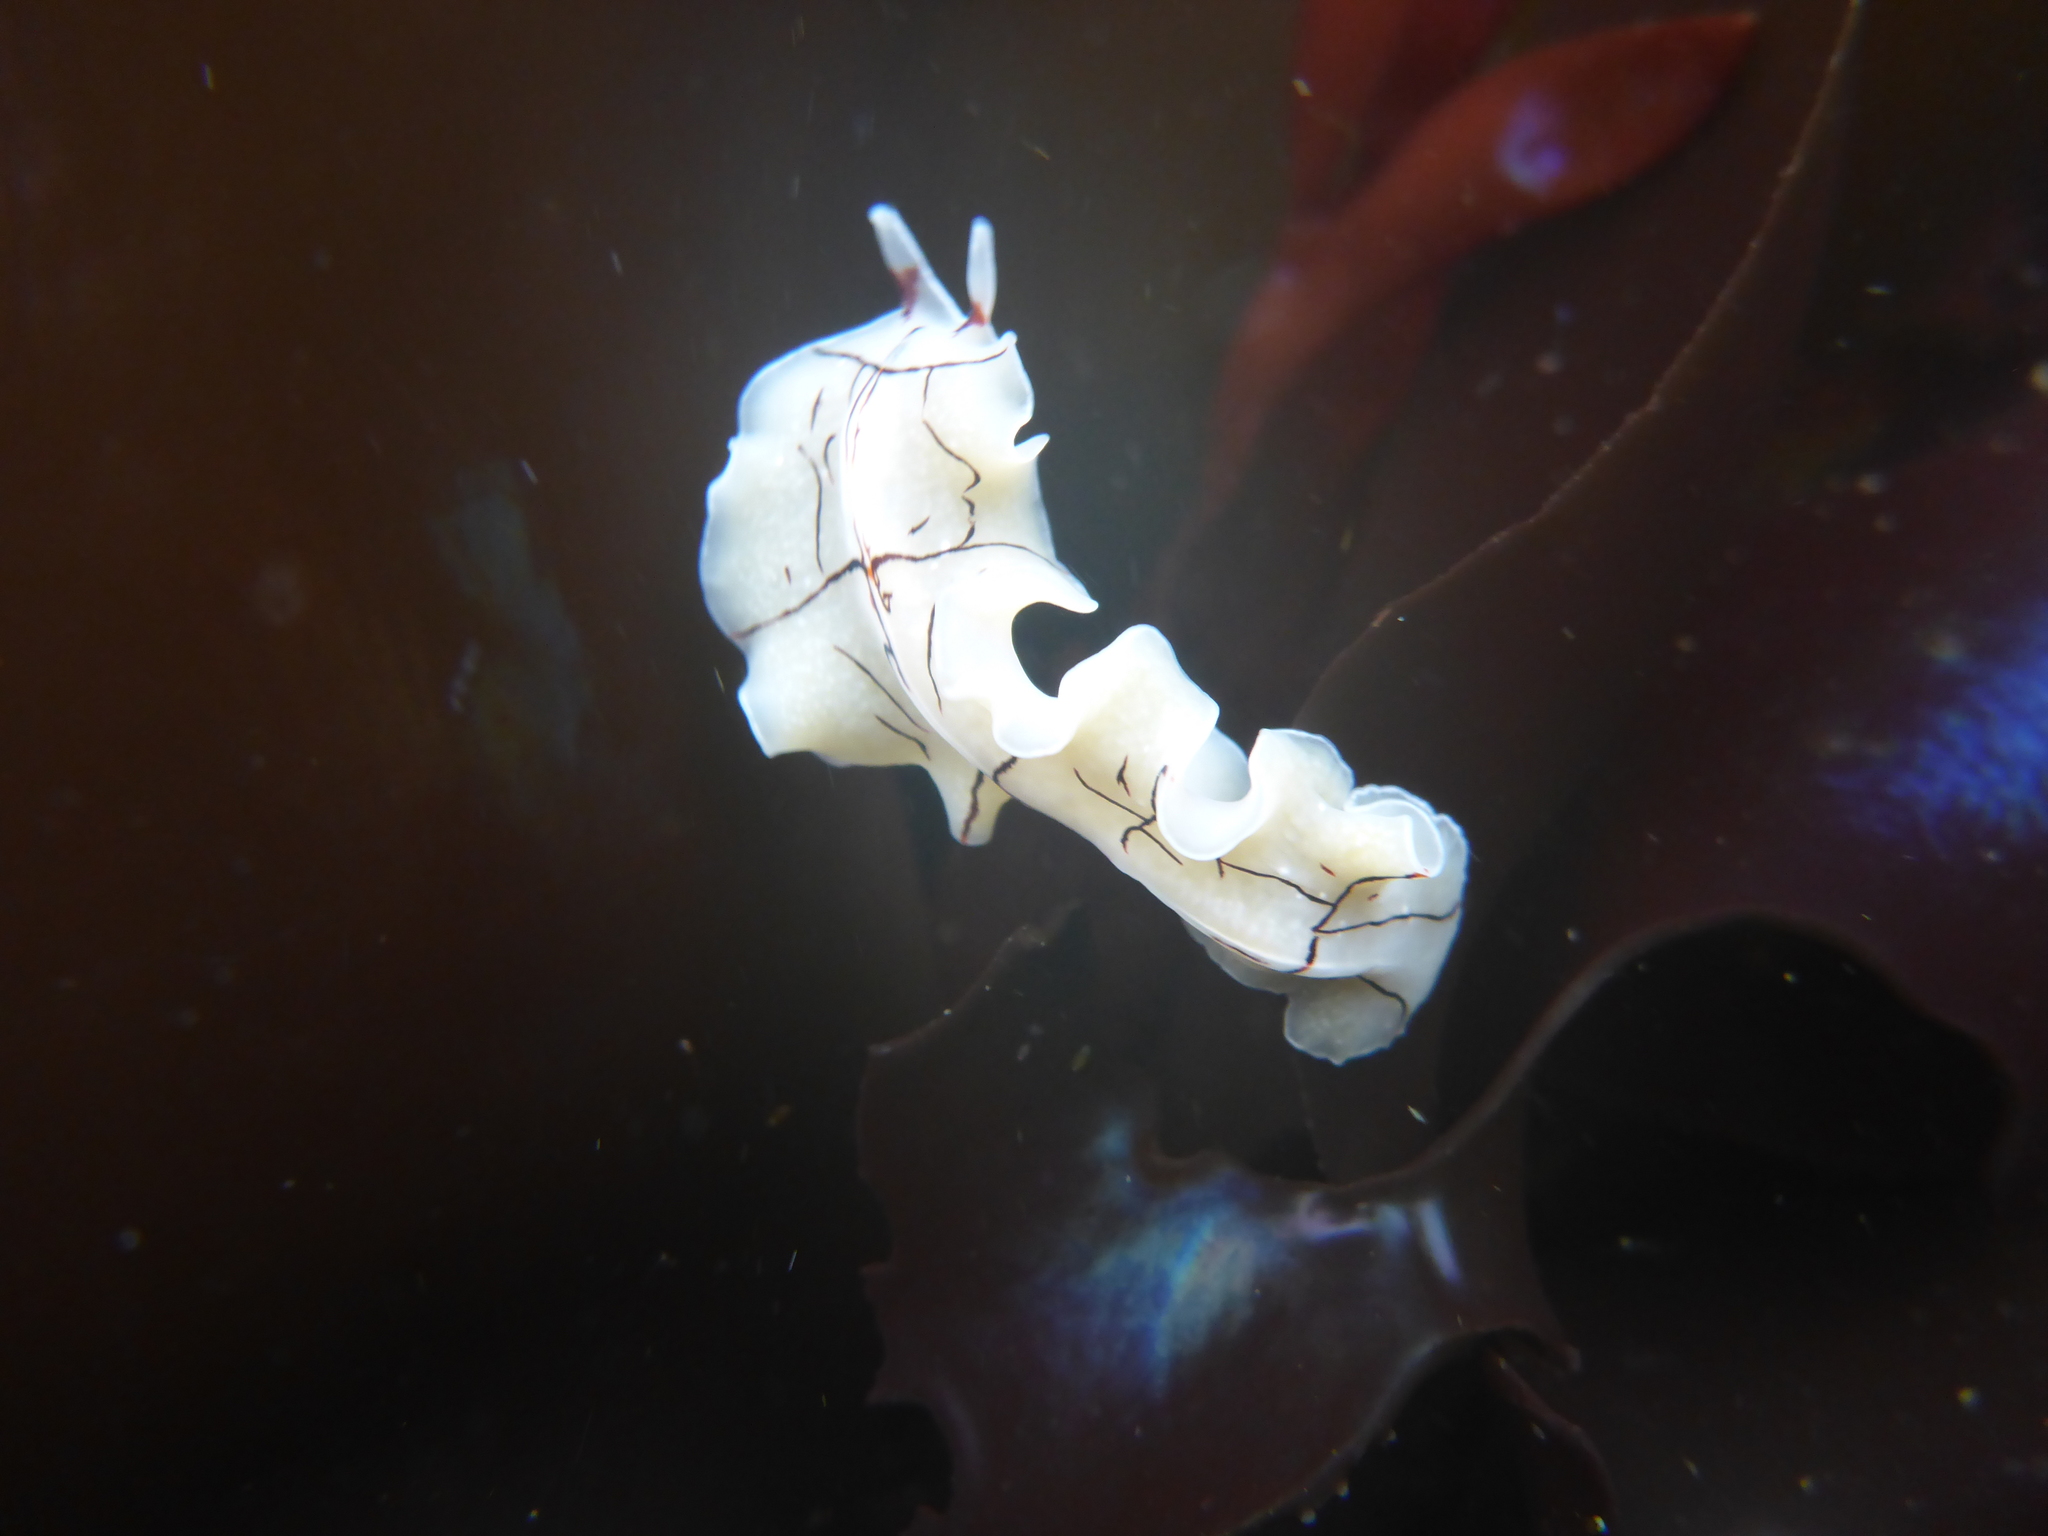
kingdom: Animalia
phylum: Platyhelminthes
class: Turbellaria
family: Euryleptidae
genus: Eurylepta
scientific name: Eurylepta californica
